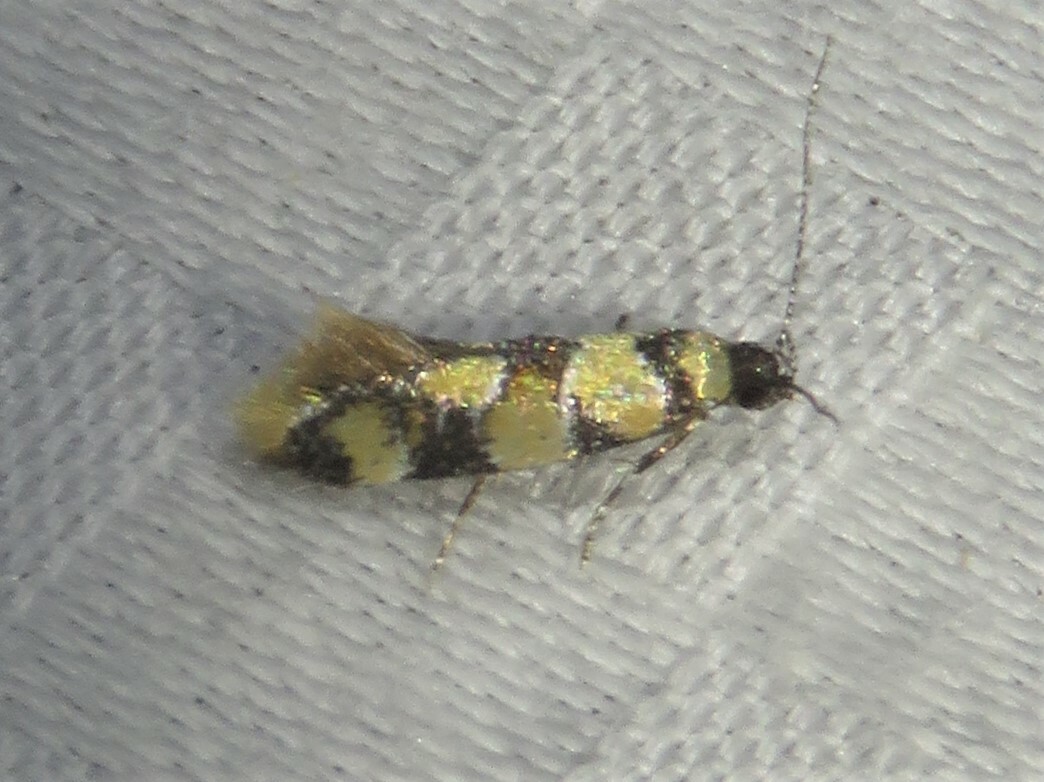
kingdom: Animalia
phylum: Arthropoda
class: Insecta
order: Lepidoptera
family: Oecophoridae
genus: Decantha
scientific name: Decantha borkhausenii
